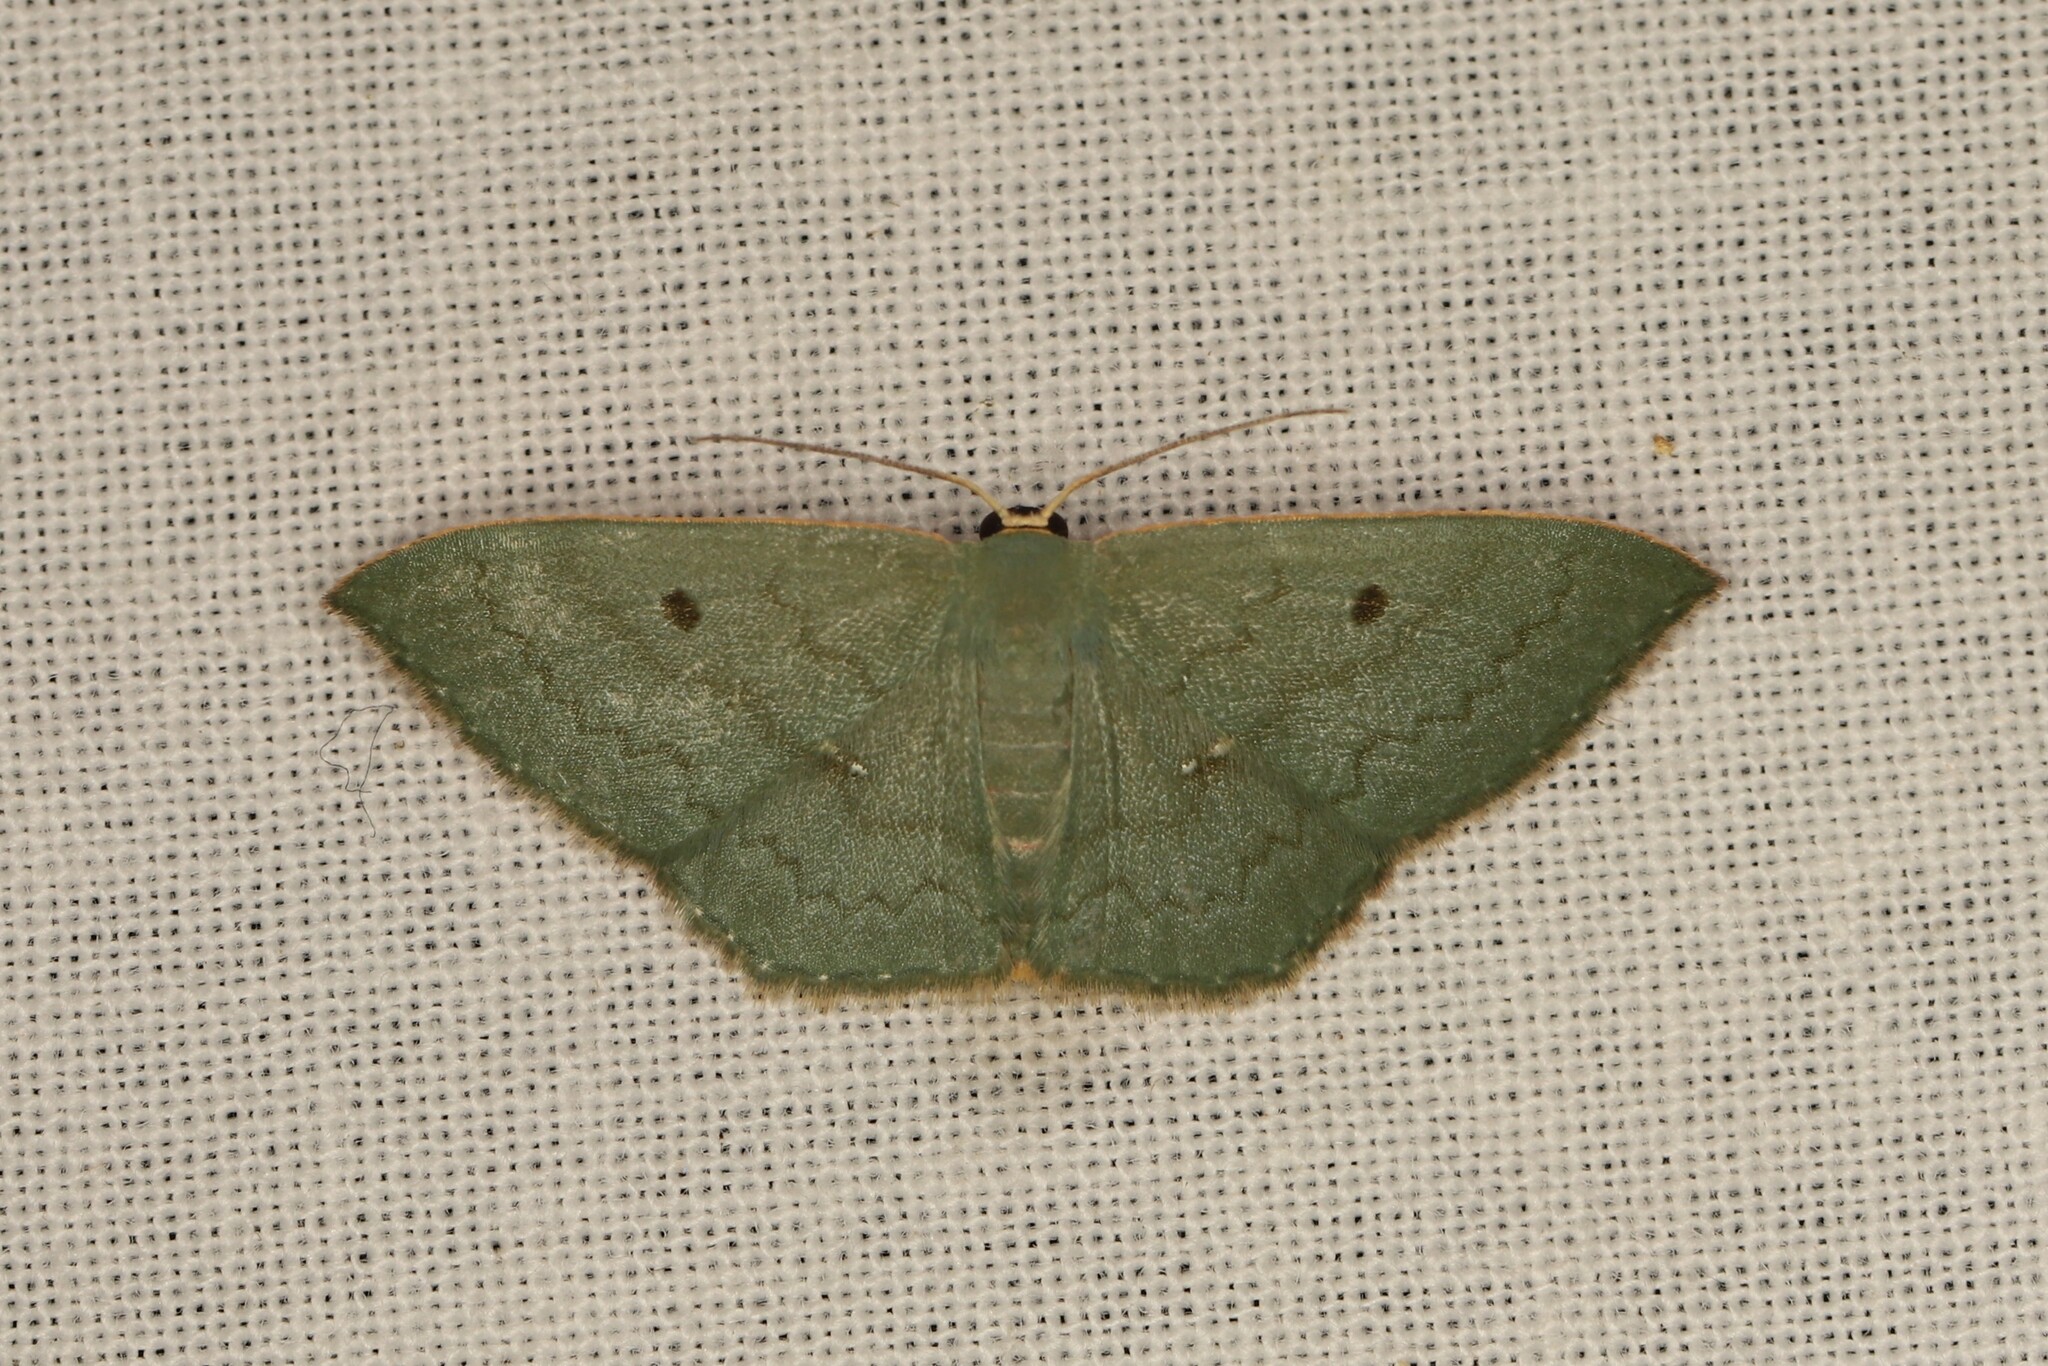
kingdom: Animalia
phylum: Arthropoda
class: Insecta
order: Lepidoptera
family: Geometridae
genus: Zalissolepis
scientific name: Zalissolepis subviolaria
